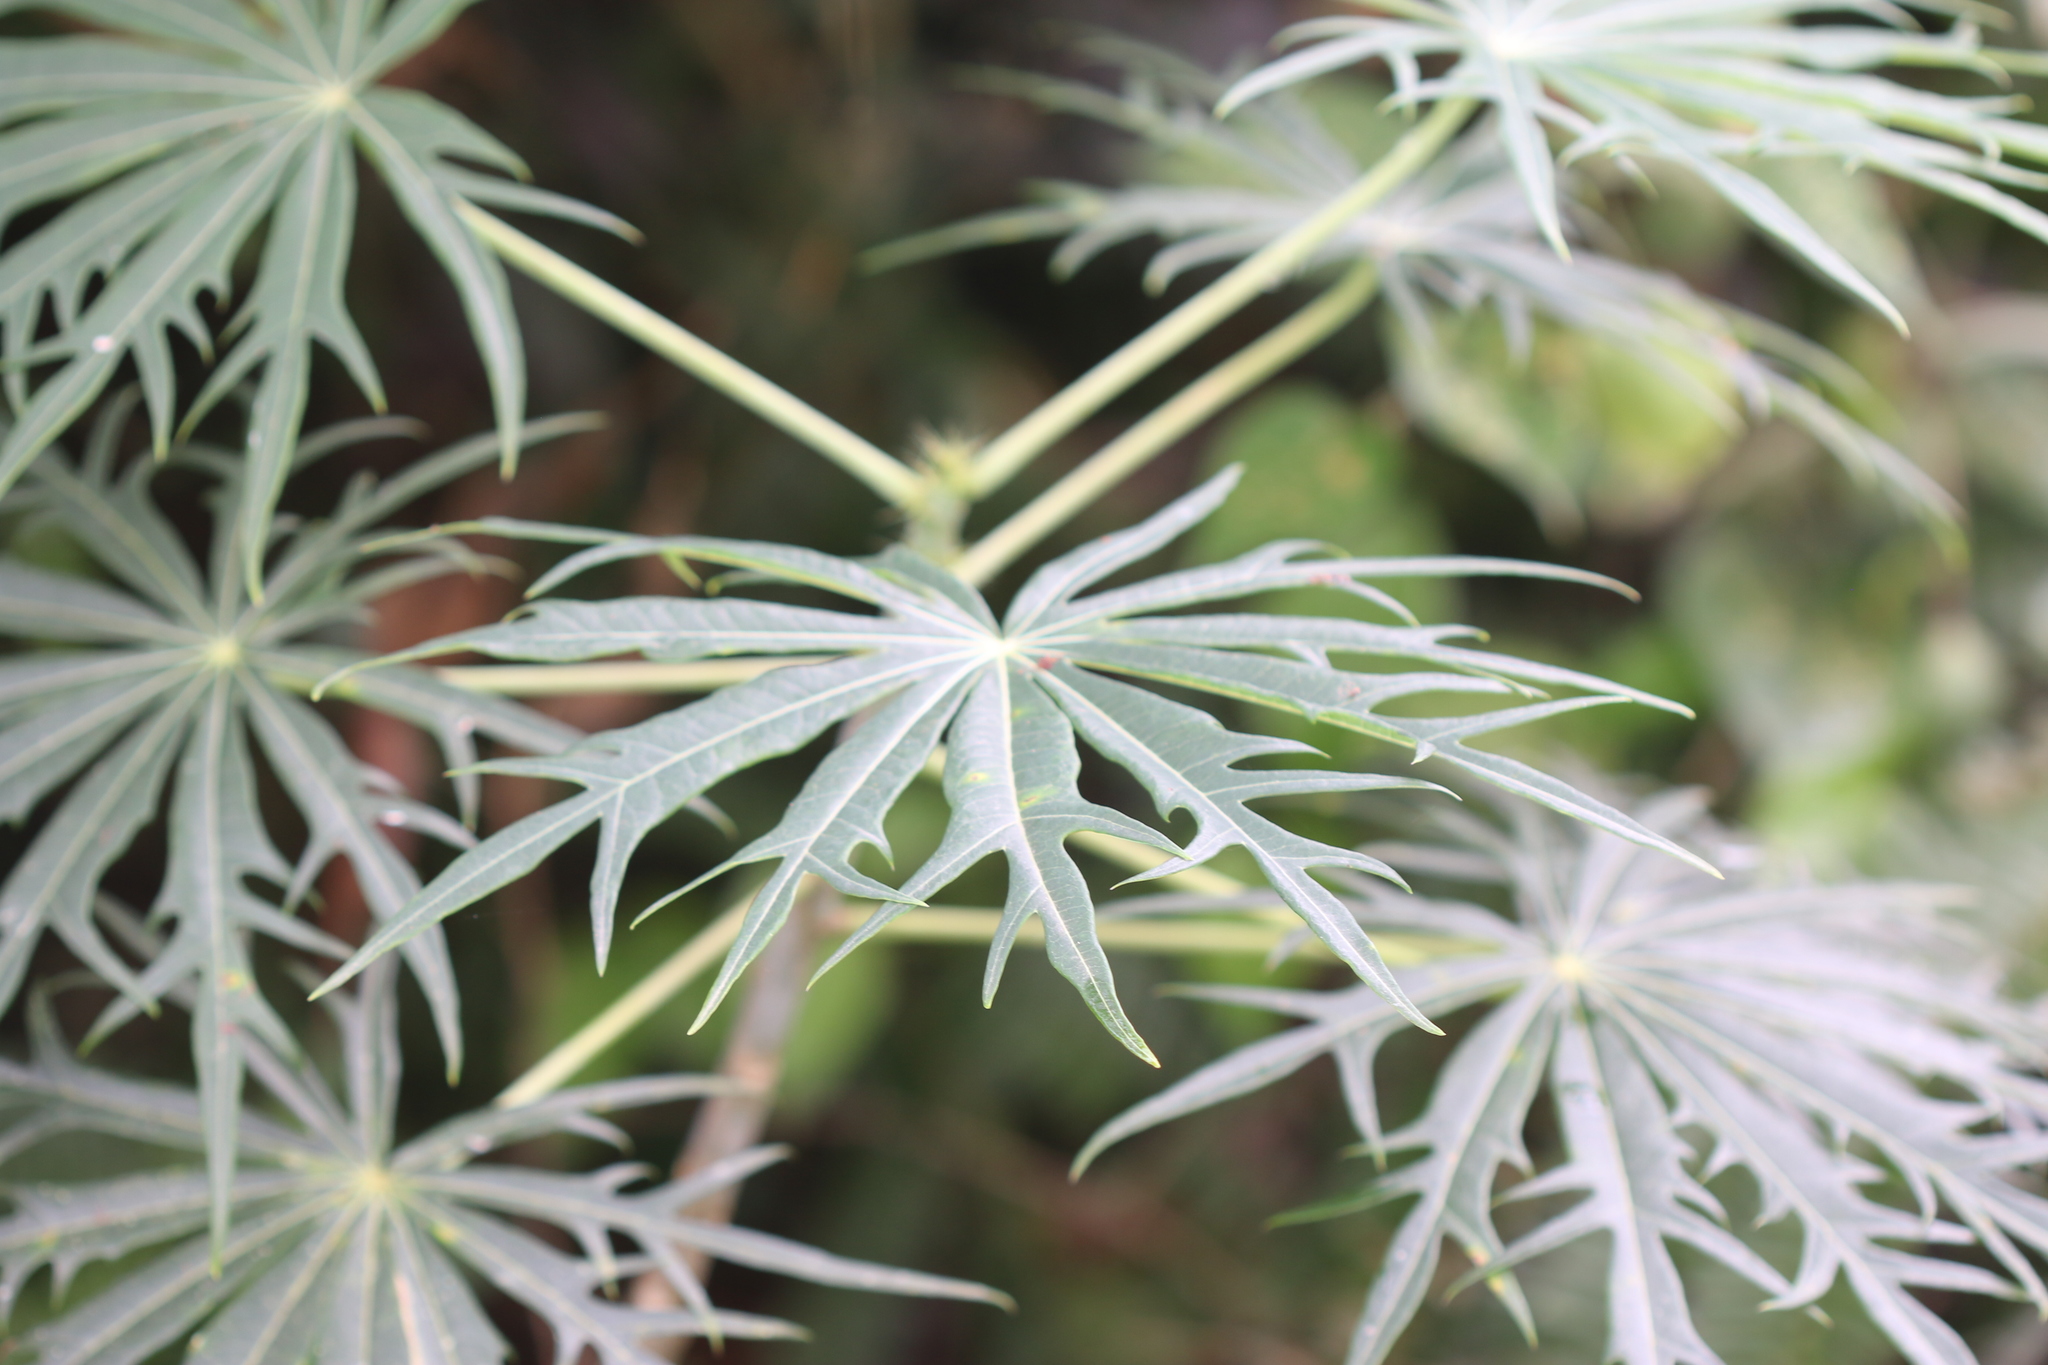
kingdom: Plantae
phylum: Tracheophyta
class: Magnoliopsida
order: Malpighiales
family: Euphorbiaceae
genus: Jatropha
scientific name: Jatropha multifida
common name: Coralbush
